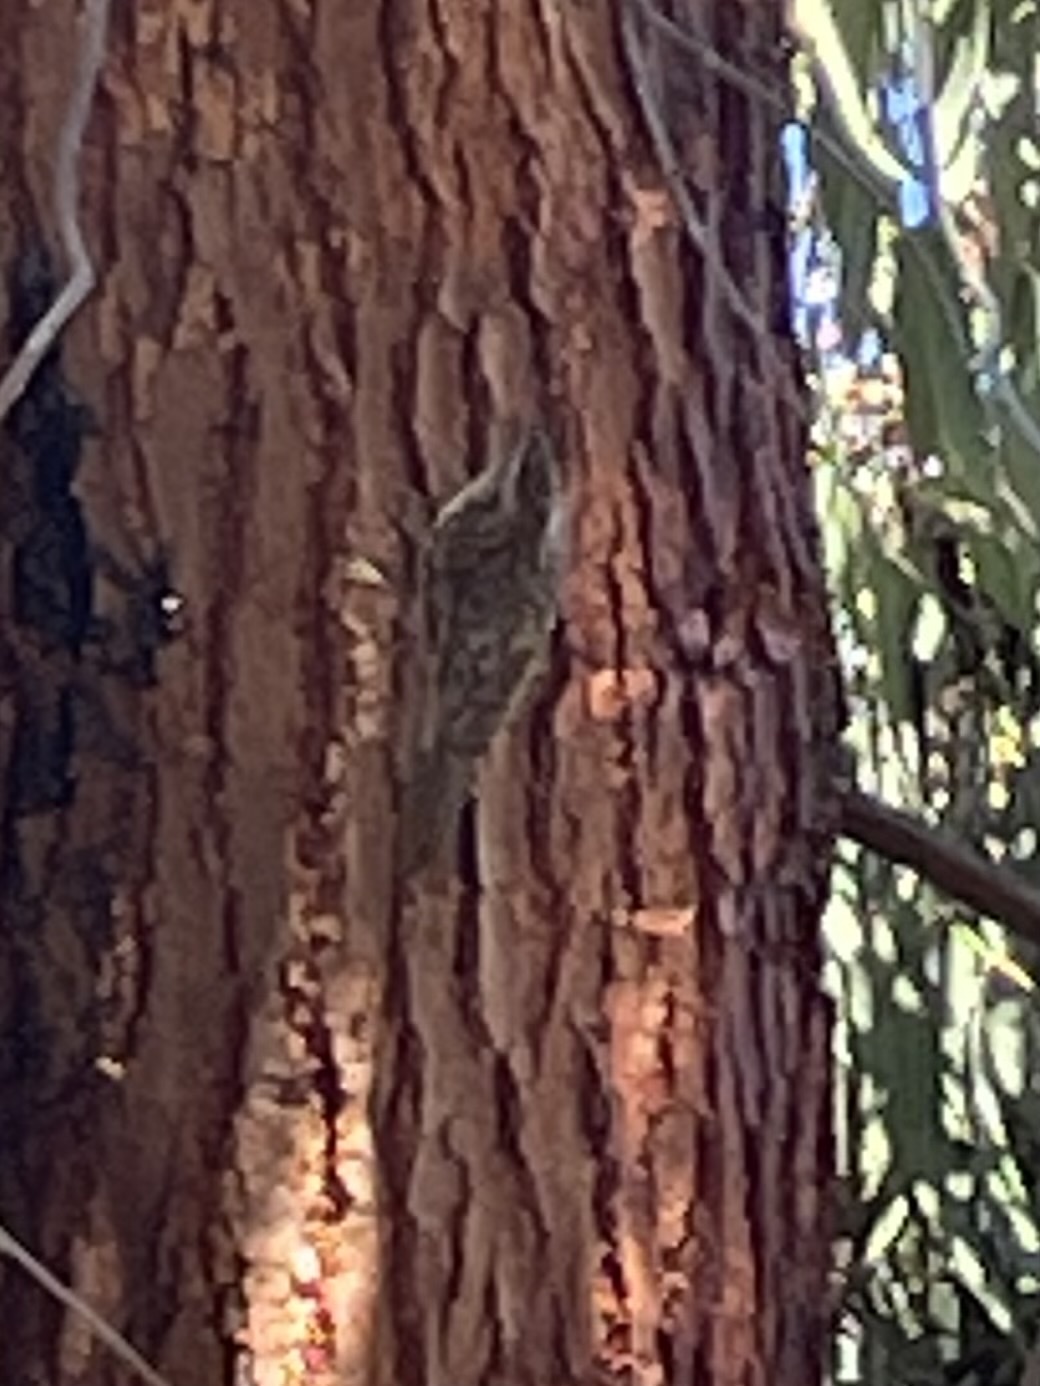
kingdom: Animalia
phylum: Chordata
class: Aves
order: Passeriformes
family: Certhiidae
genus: Certhia
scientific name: Certhia americana
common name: Brown creeper
